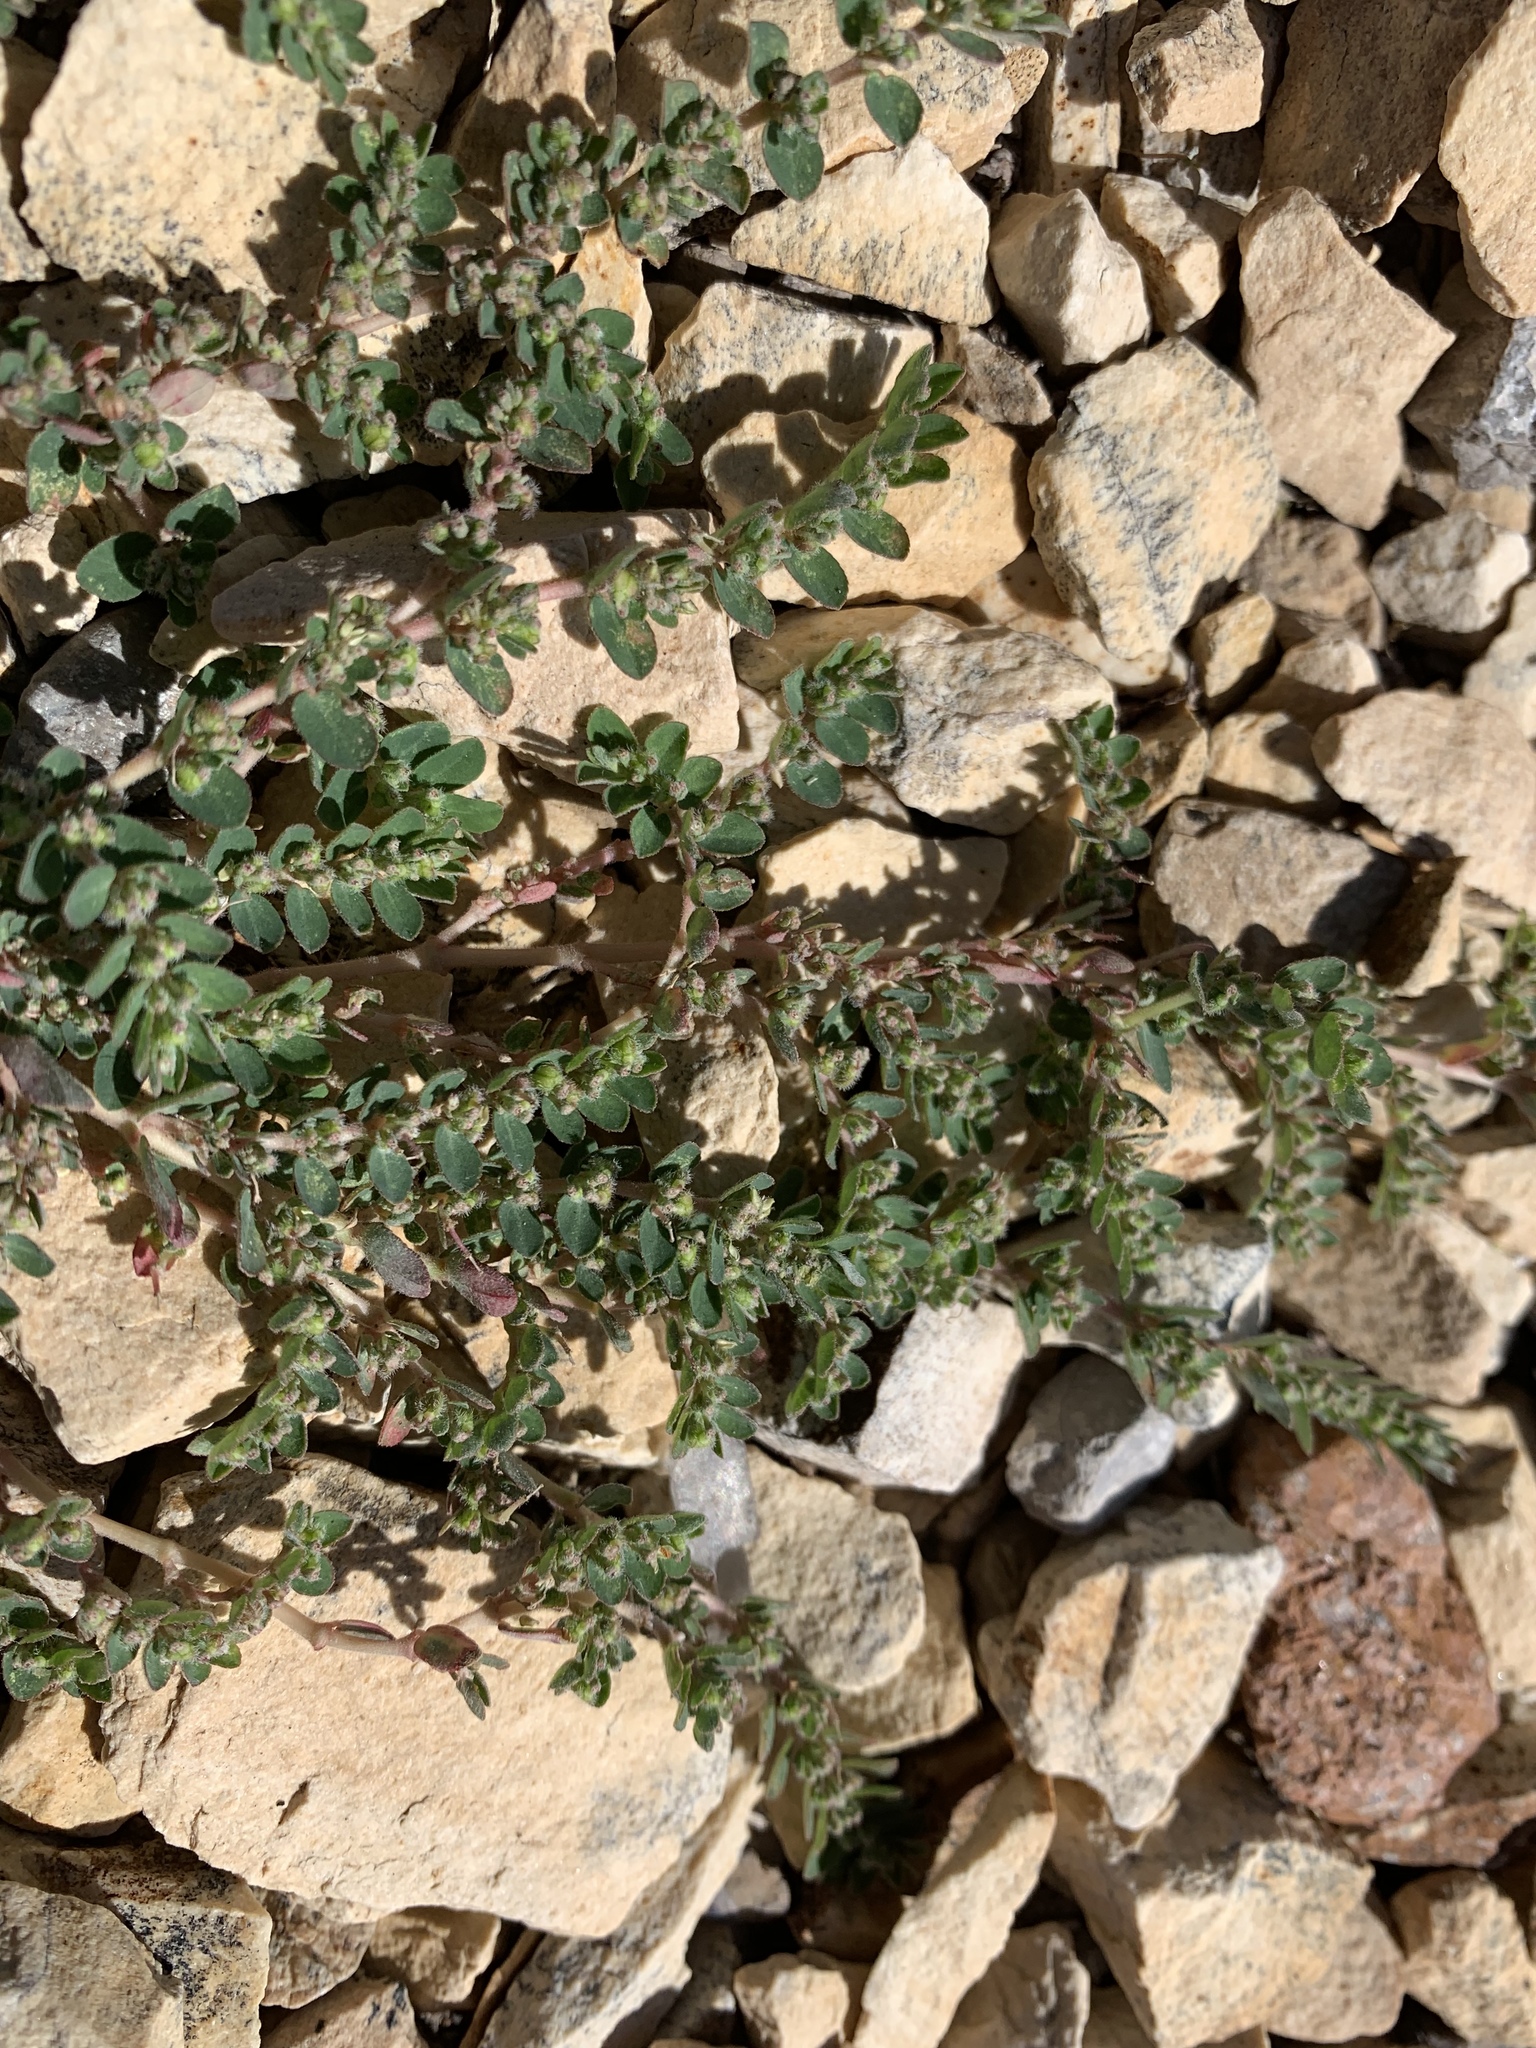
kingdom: Plantae
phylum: Tracheophyta
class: Magnoliopsida
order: Malpighiales
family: Euphorbiaceae
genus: Euphorbia
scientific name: Euphorbia prostrata
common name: Prostrate sandmat
